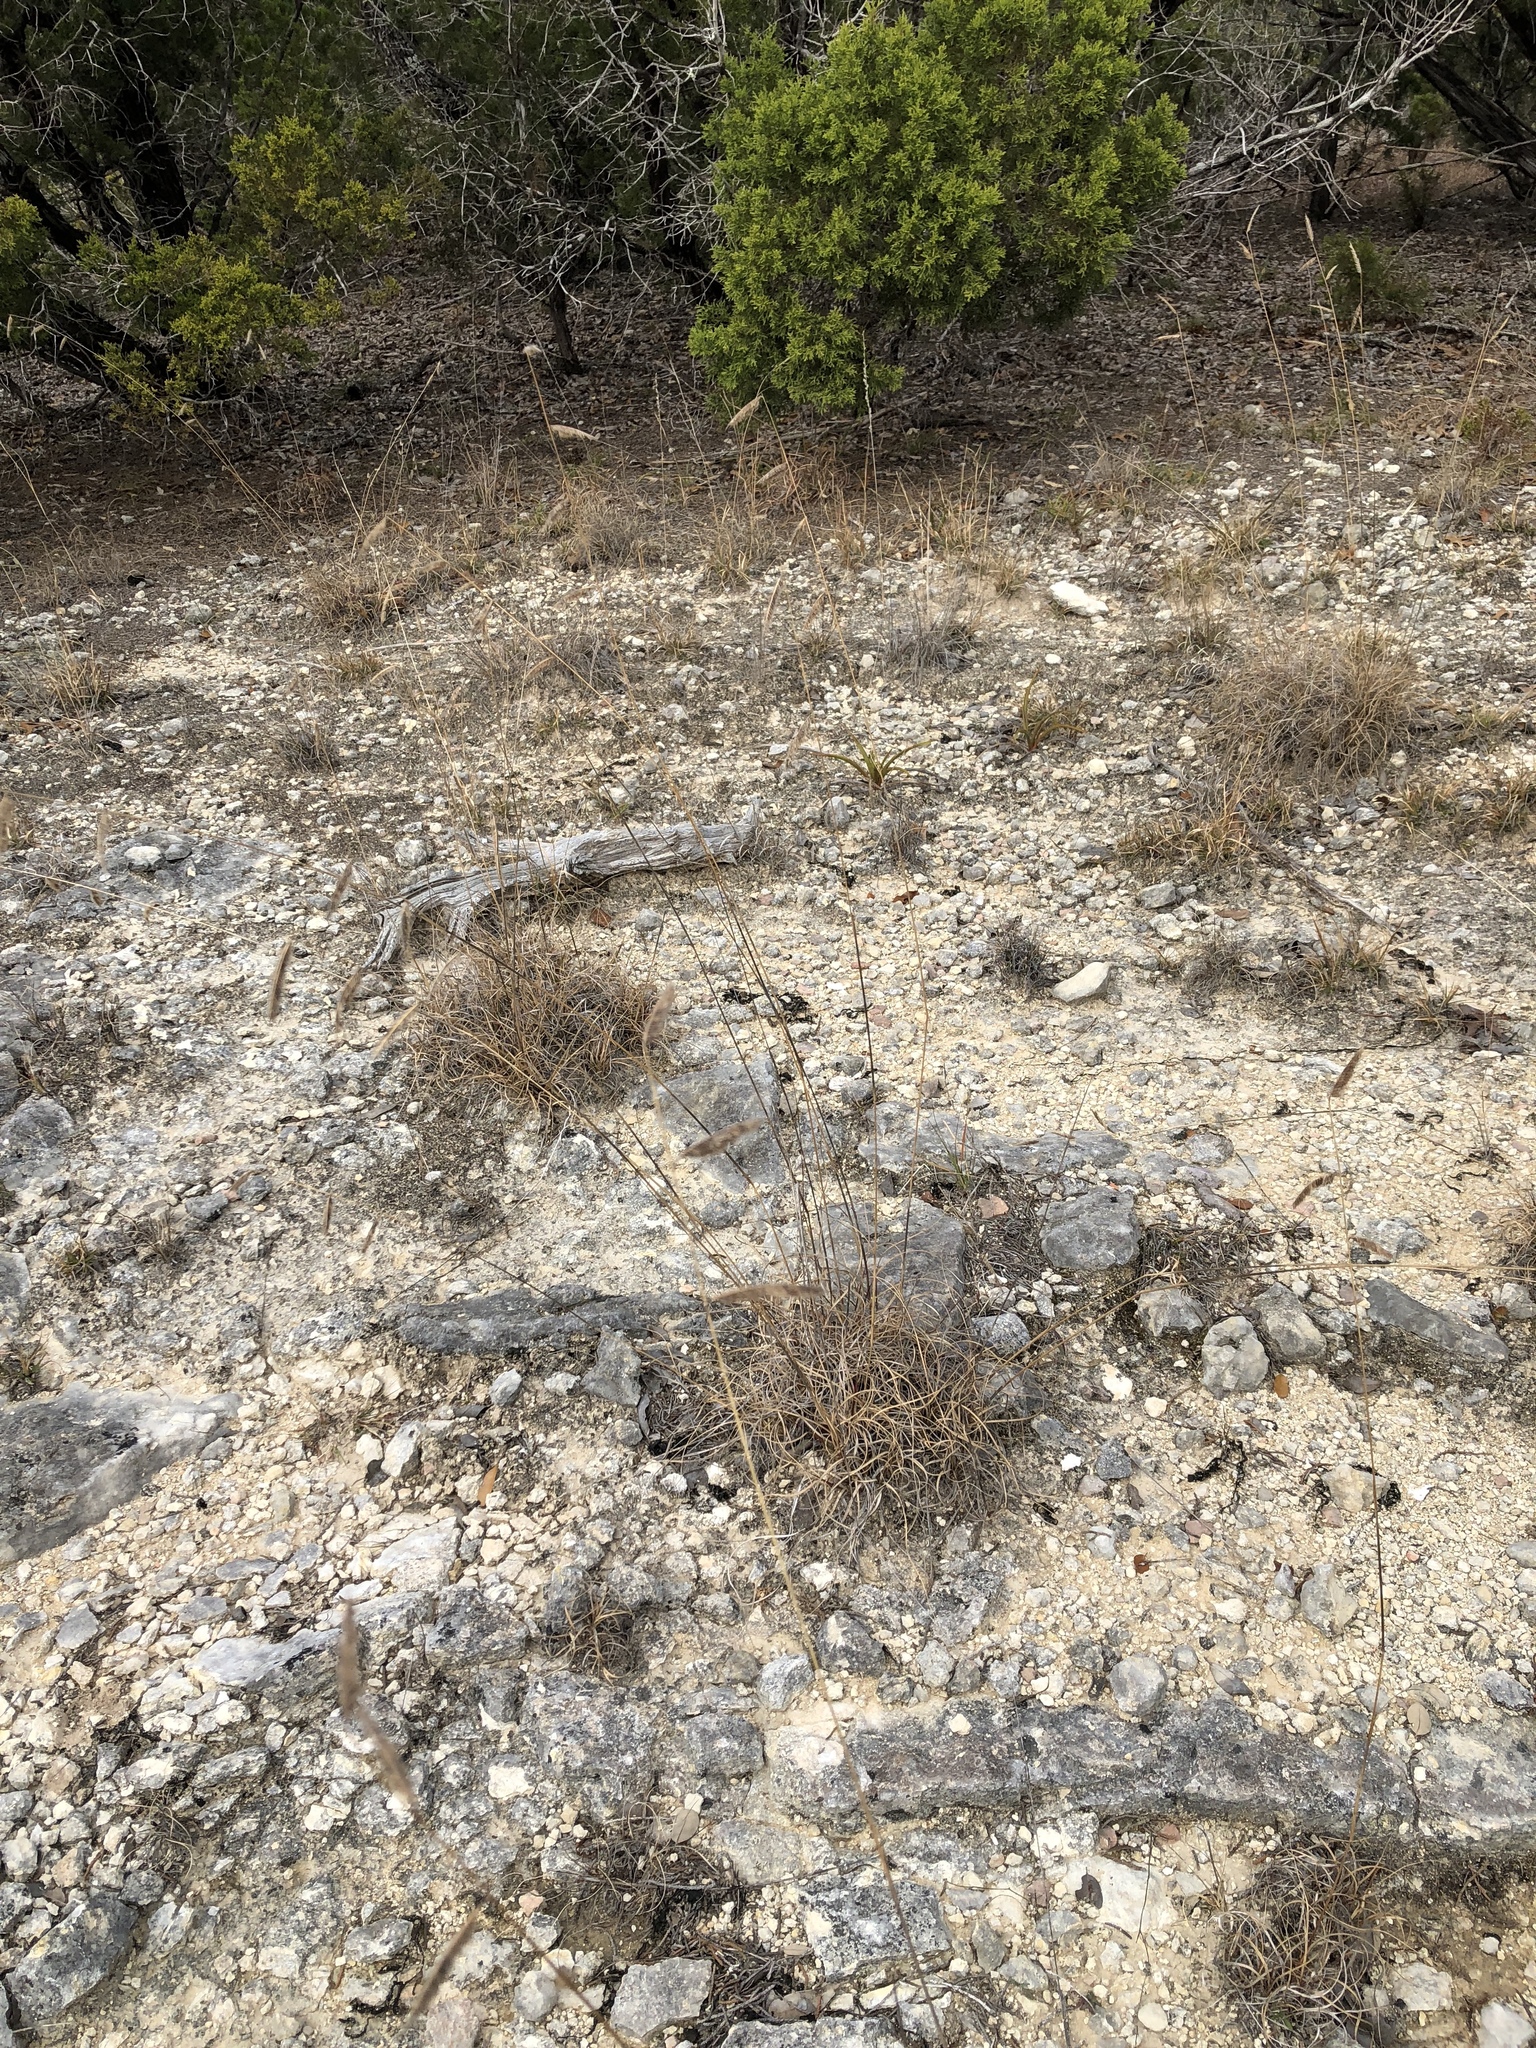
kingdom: Plantae
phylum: Tracheophyta
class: Liliopsida
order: Poales
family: Poaceae
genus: Bouteloua
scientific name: Bouteloua pectinata
